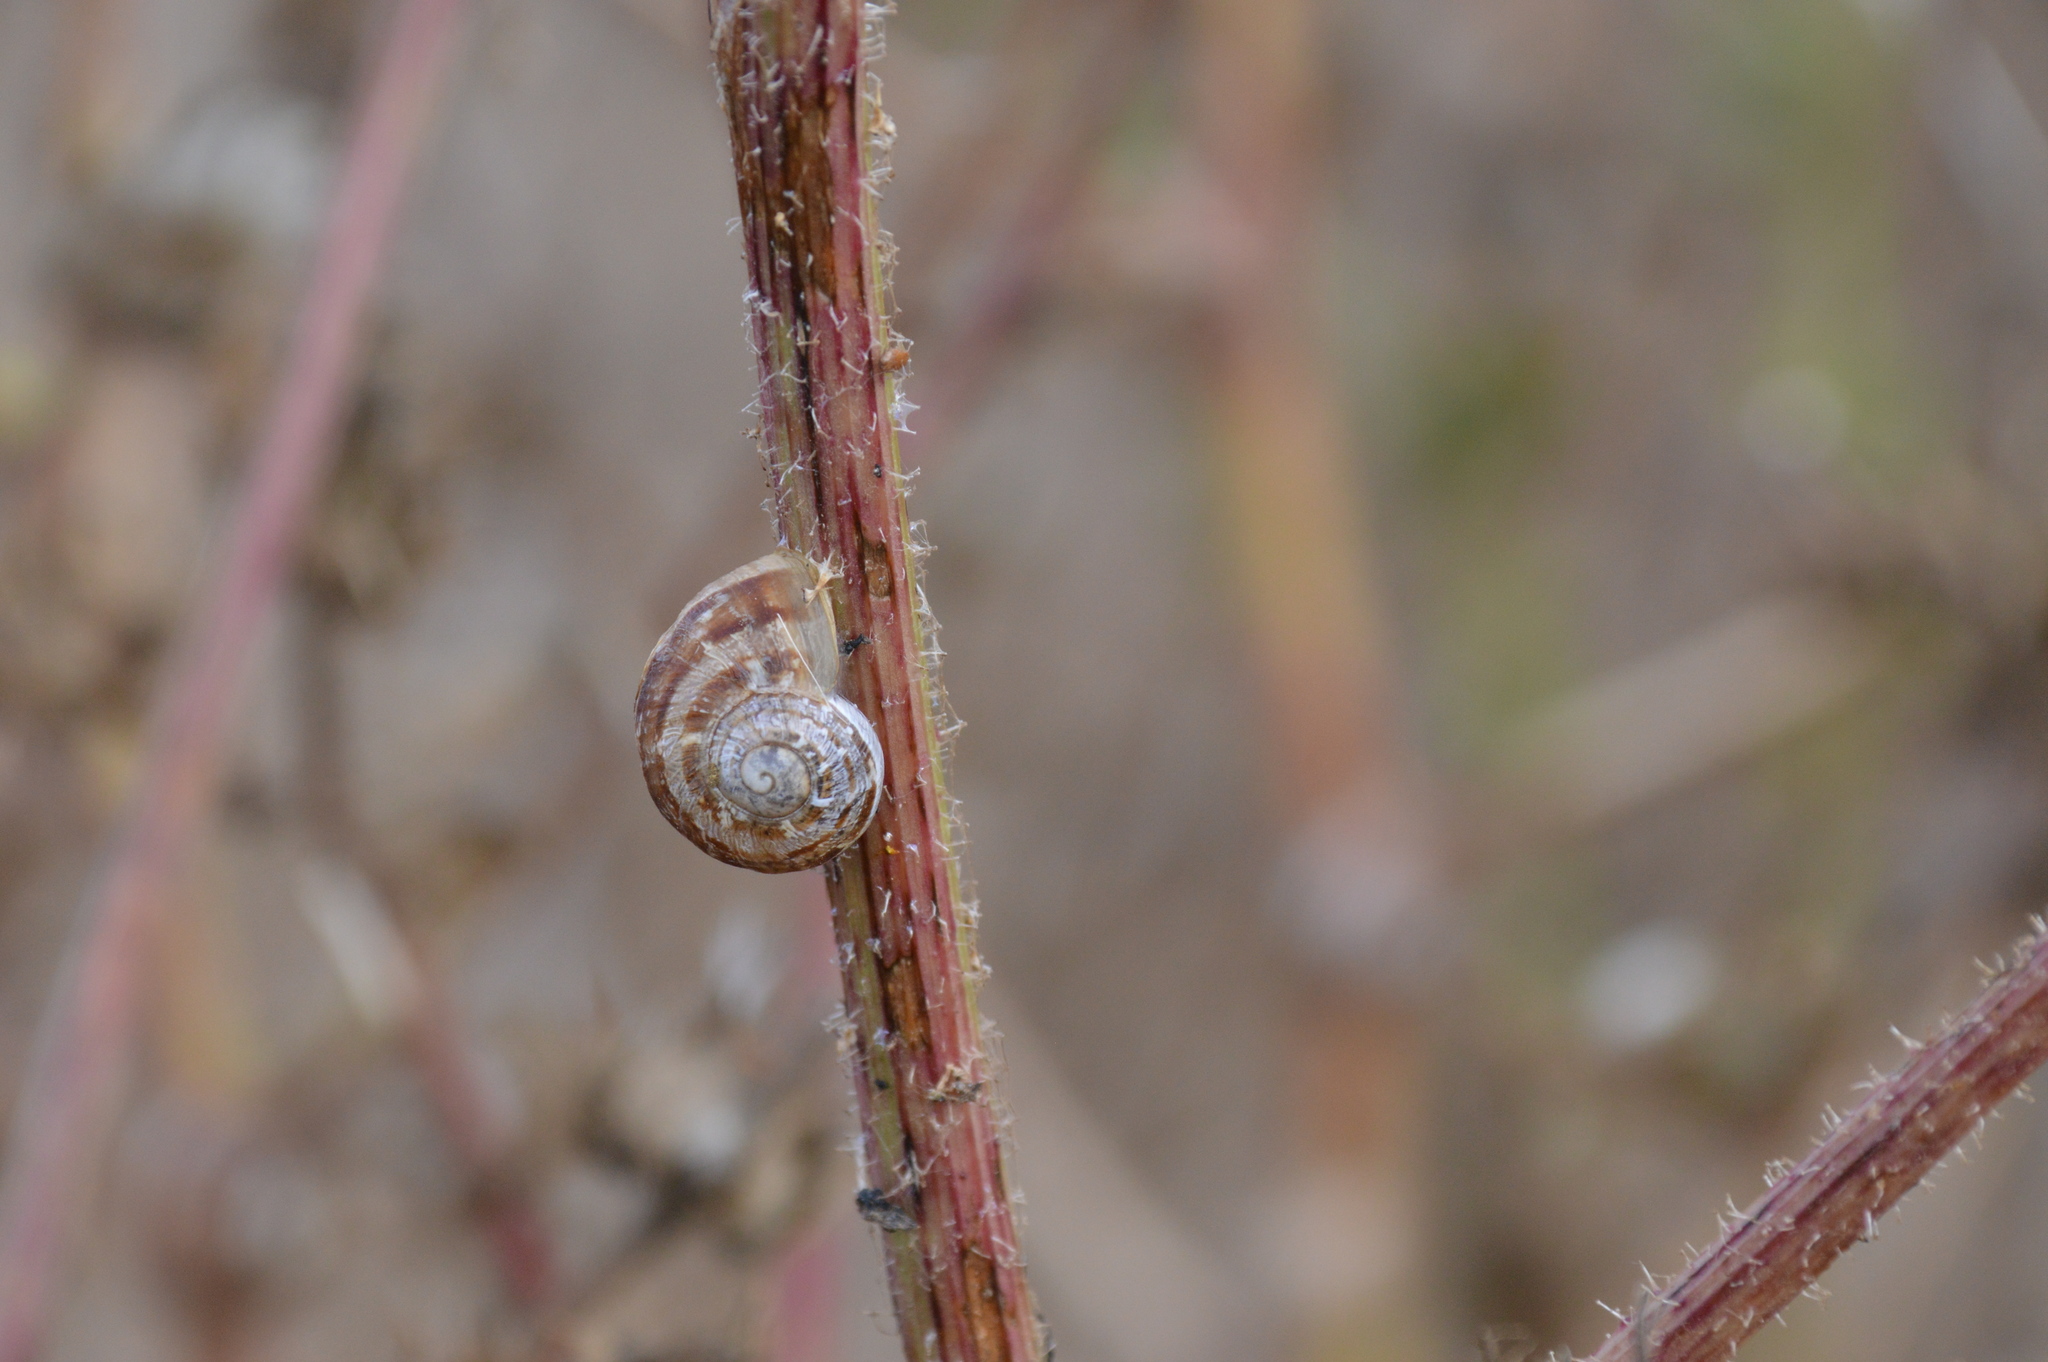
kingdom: Animalia
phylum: Mollusca
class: Gastropoda
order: Stylommatophora
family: Helicidae
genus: Cornu
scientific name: Cornu aspersum
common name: Brown garden snail
